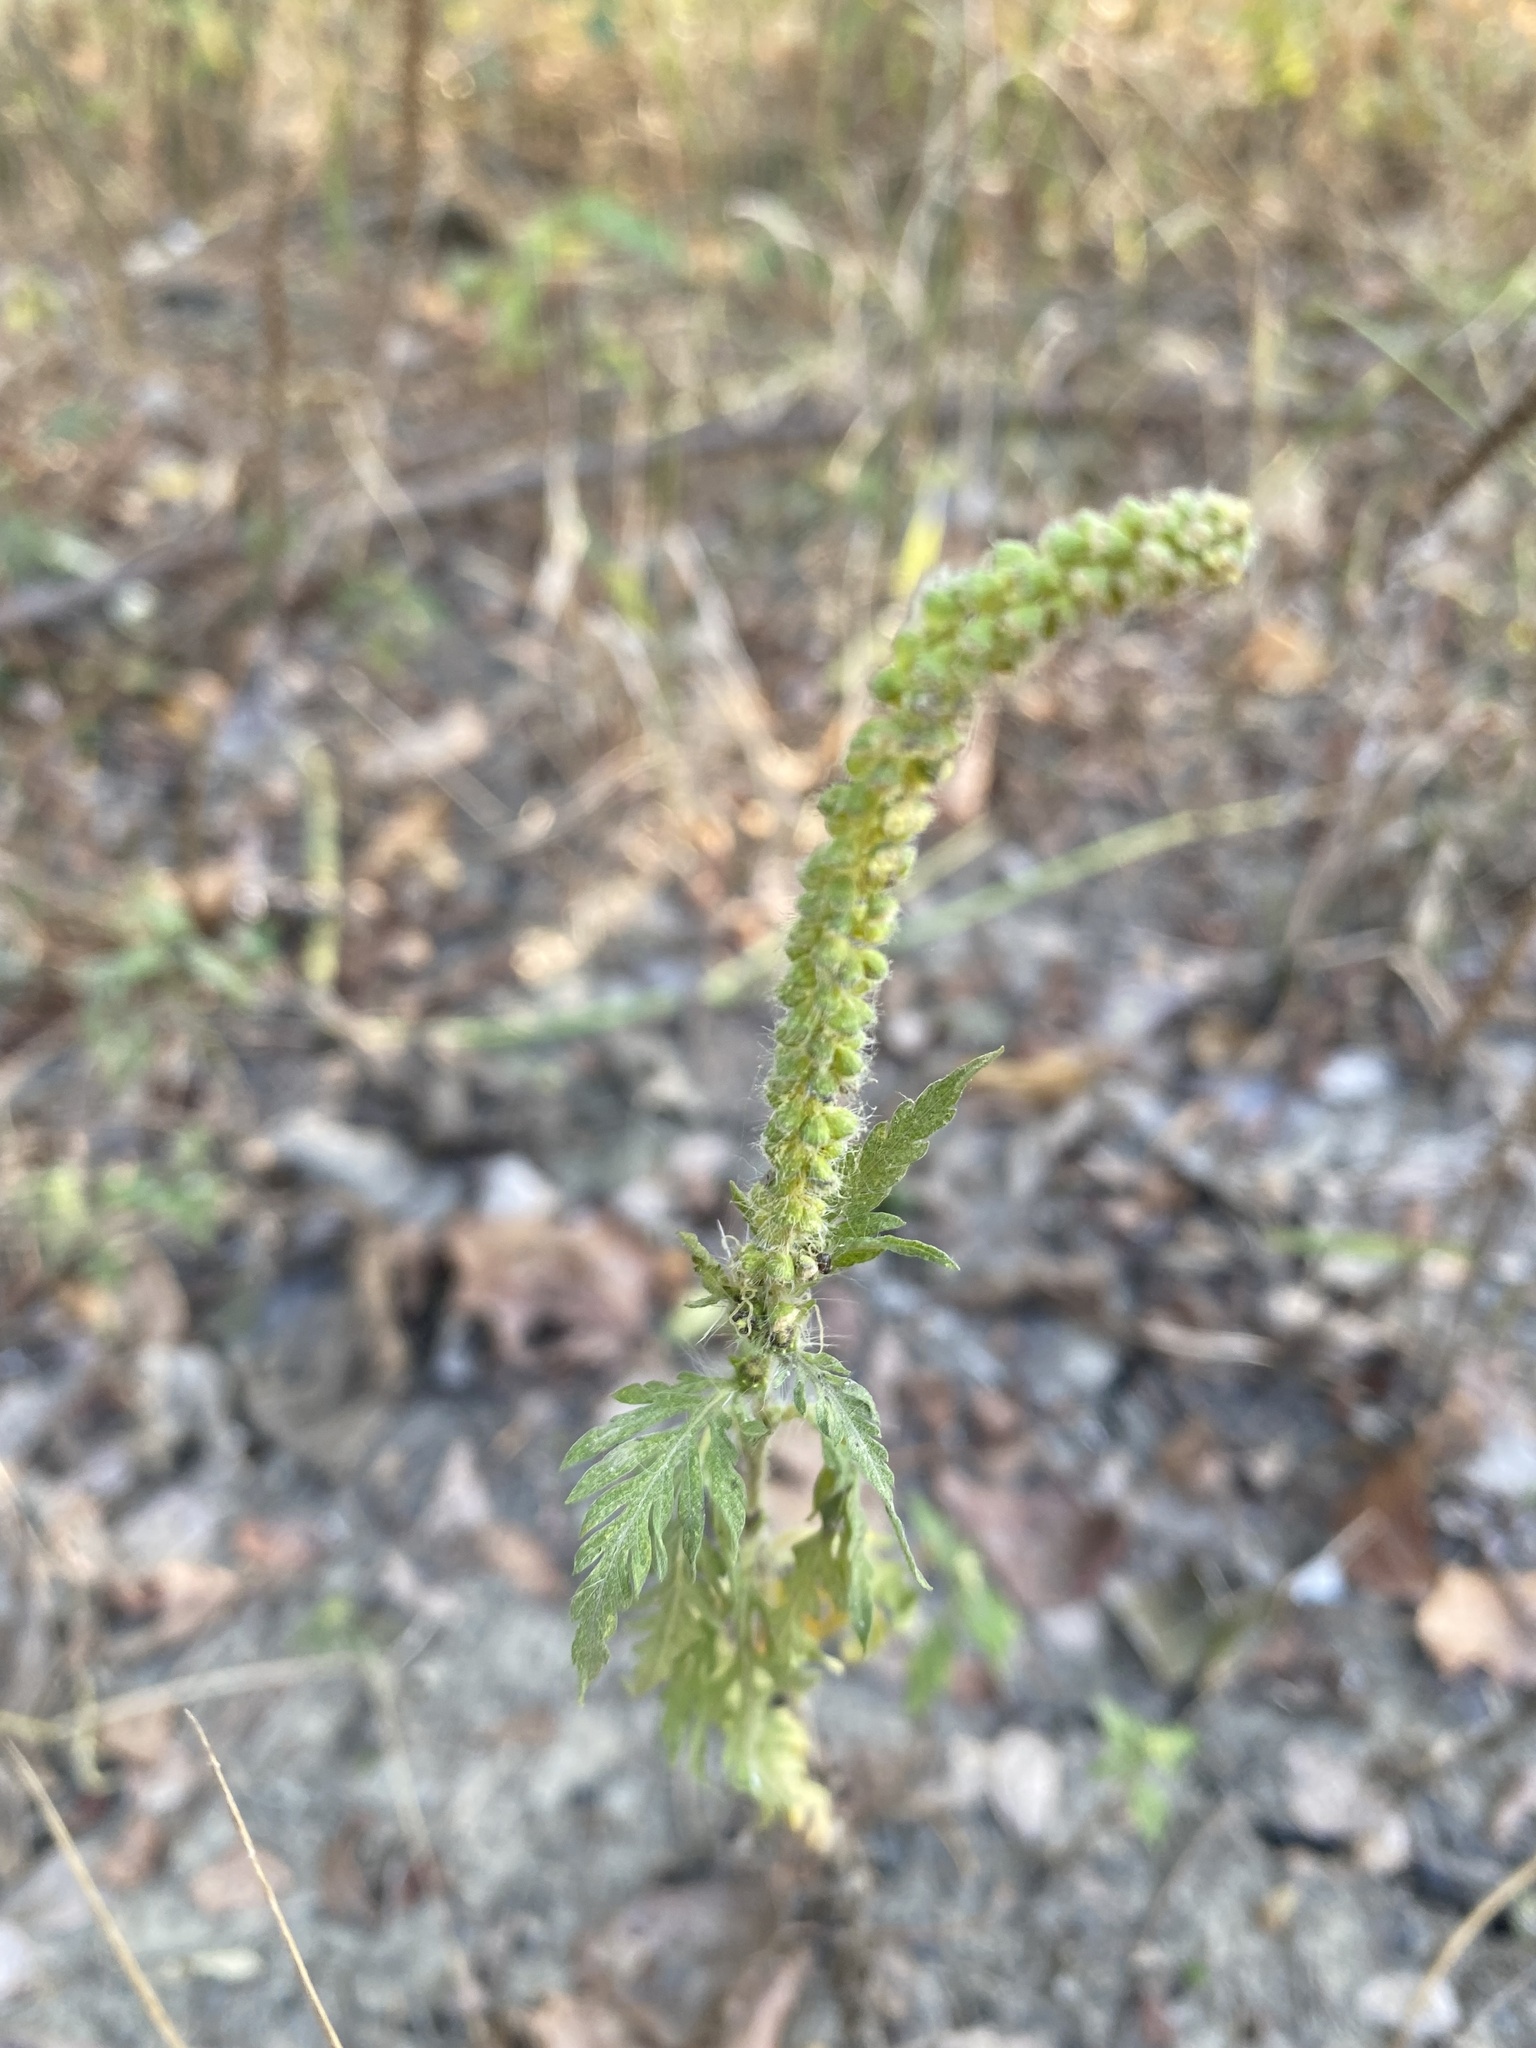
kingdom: Plantae
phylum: Tracheophyta
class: Magnoliopsida
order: Asterales
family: Asteraceae
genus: Ambrosia
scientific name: Ambrosia artemisiifolia
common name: Annual ragweed
